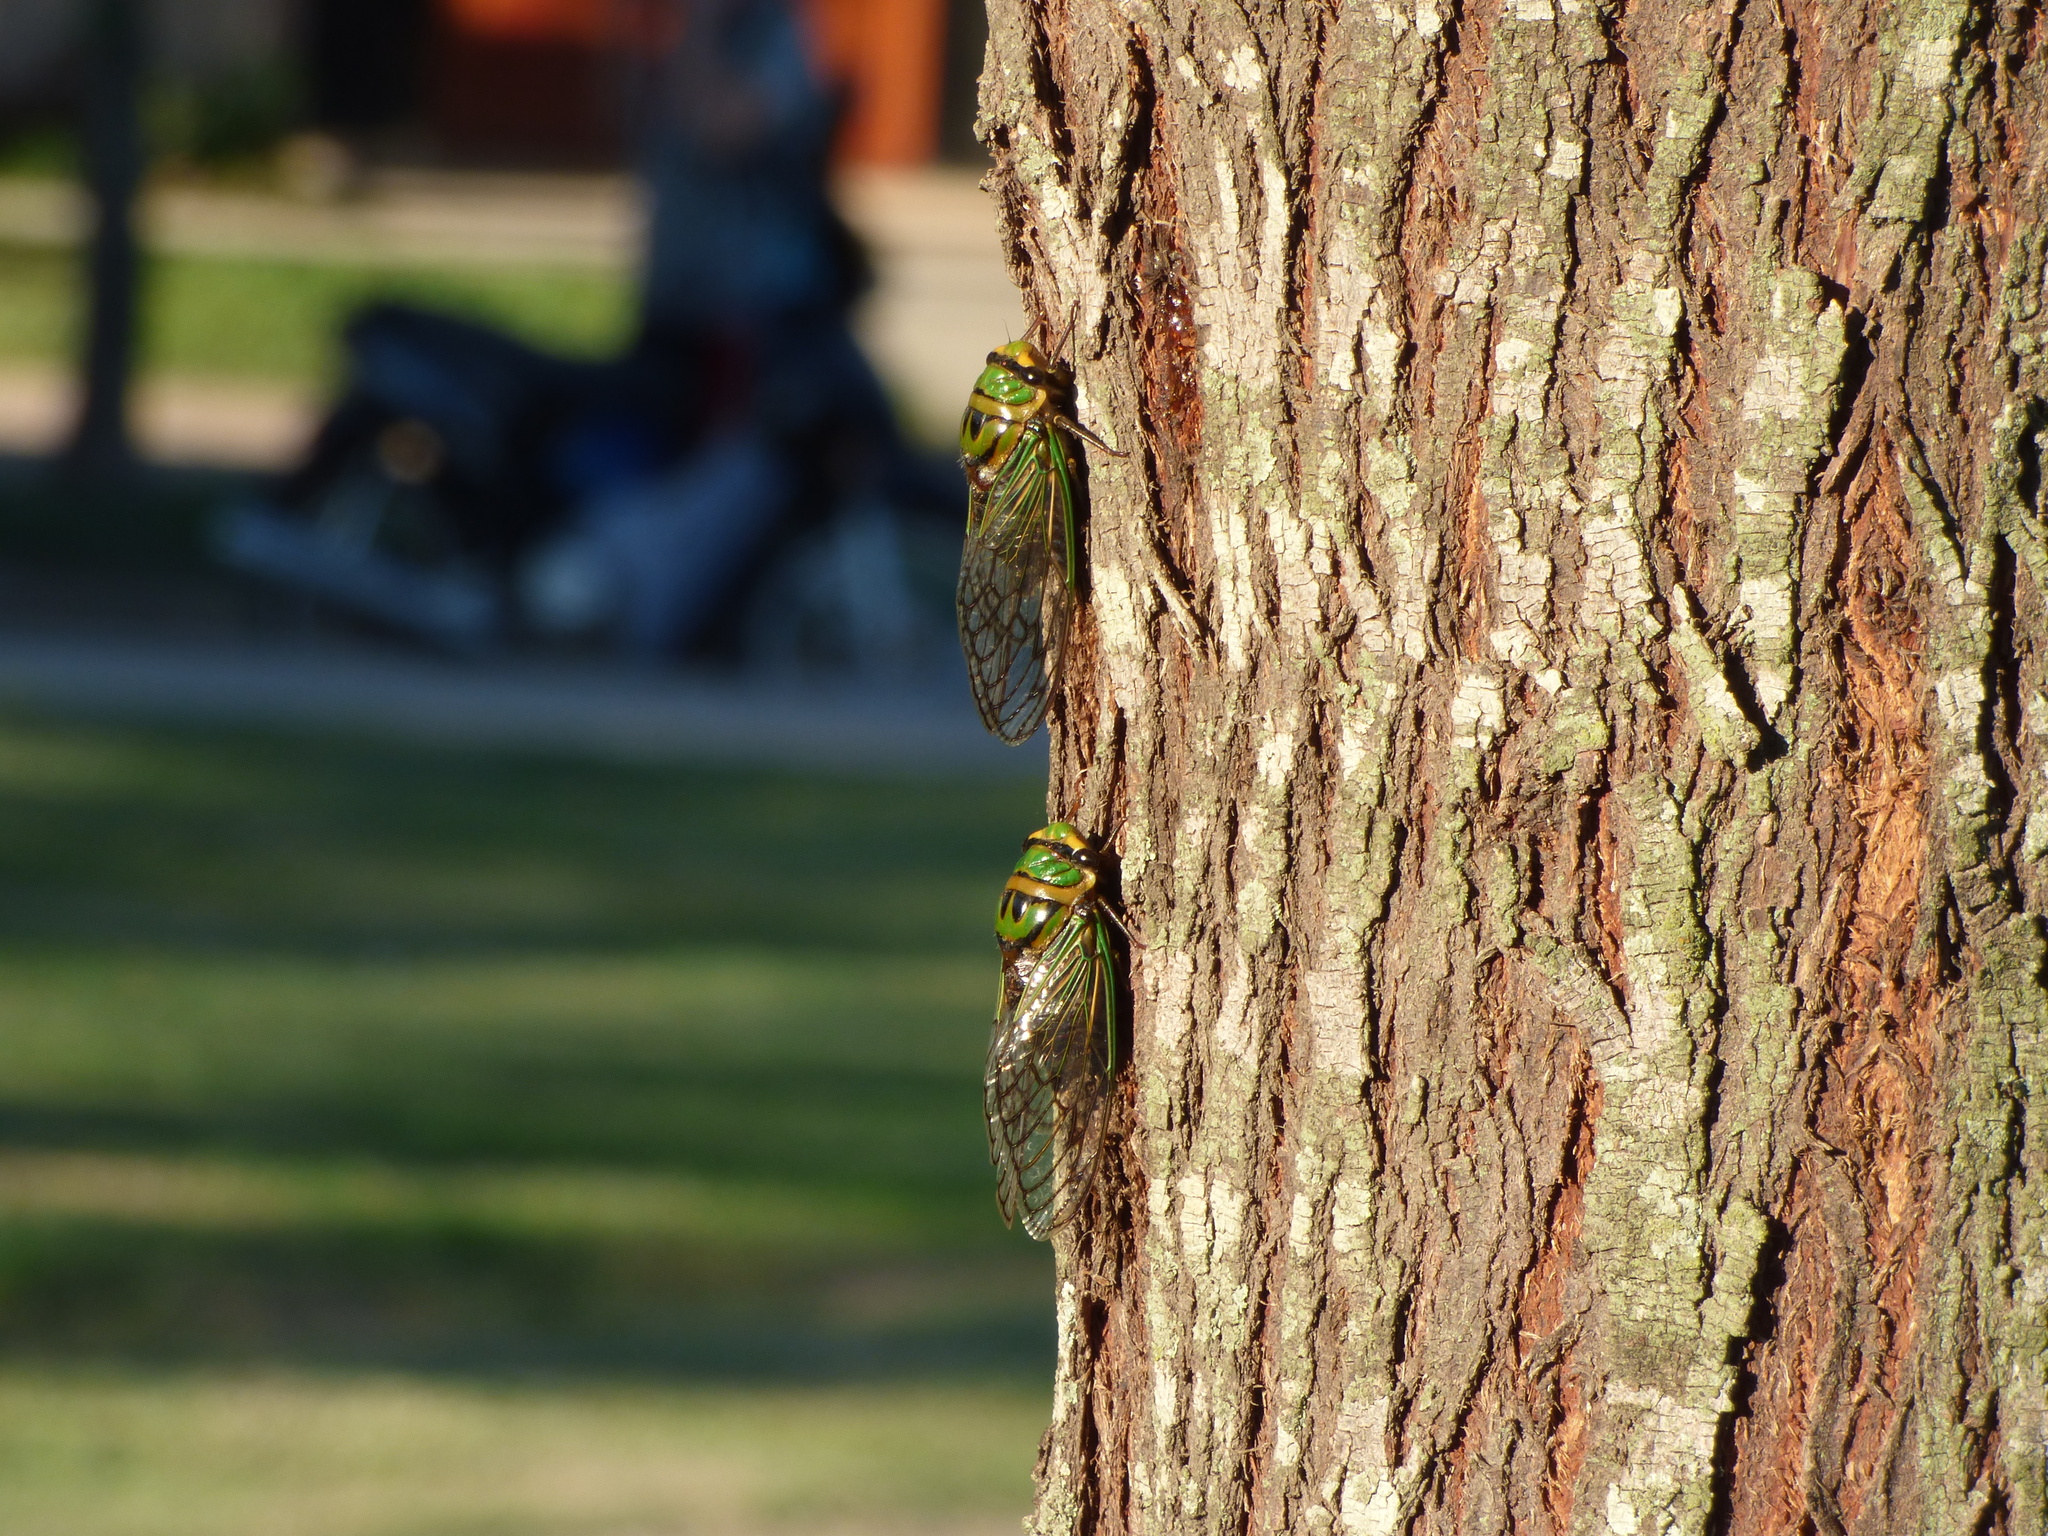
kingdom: Animalia
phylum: Arthropoda
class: Insecta
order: Hemiptera
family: Cicadidae
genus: Guyalna
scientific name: Guyalna bonaerensis
